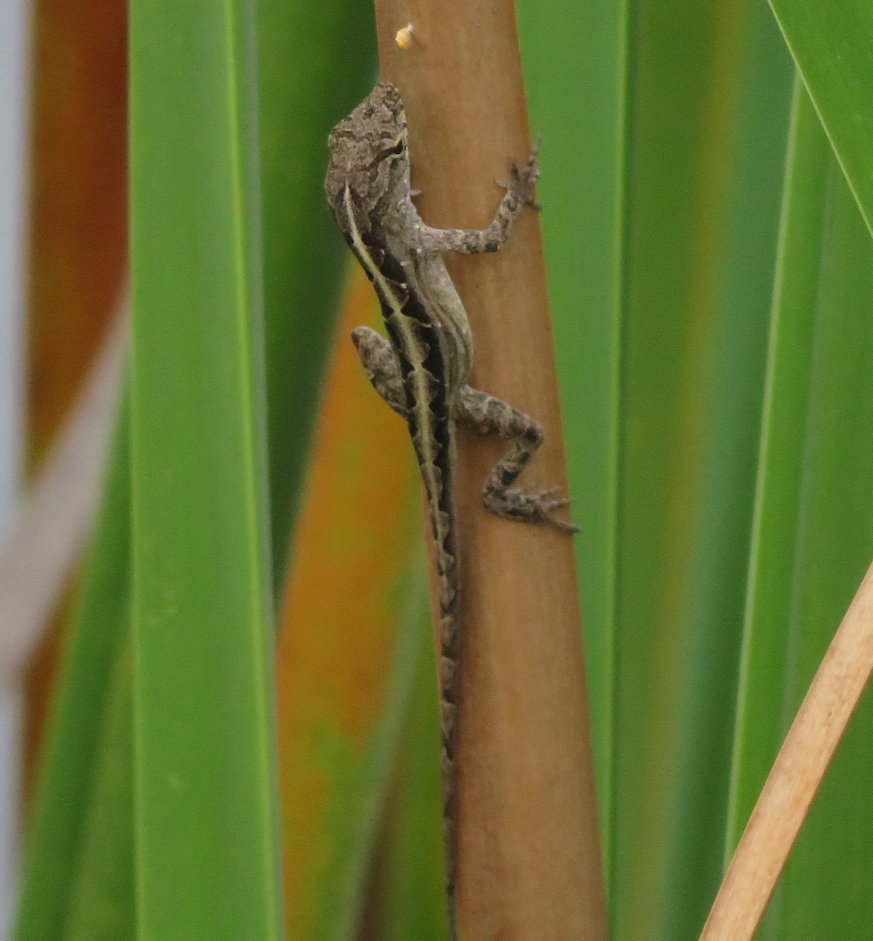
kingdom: Animalia
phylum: Chordata
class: Squamata
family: Dactyloidae
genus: Anolis
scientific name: Anolis sagrei
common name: Brown anole
